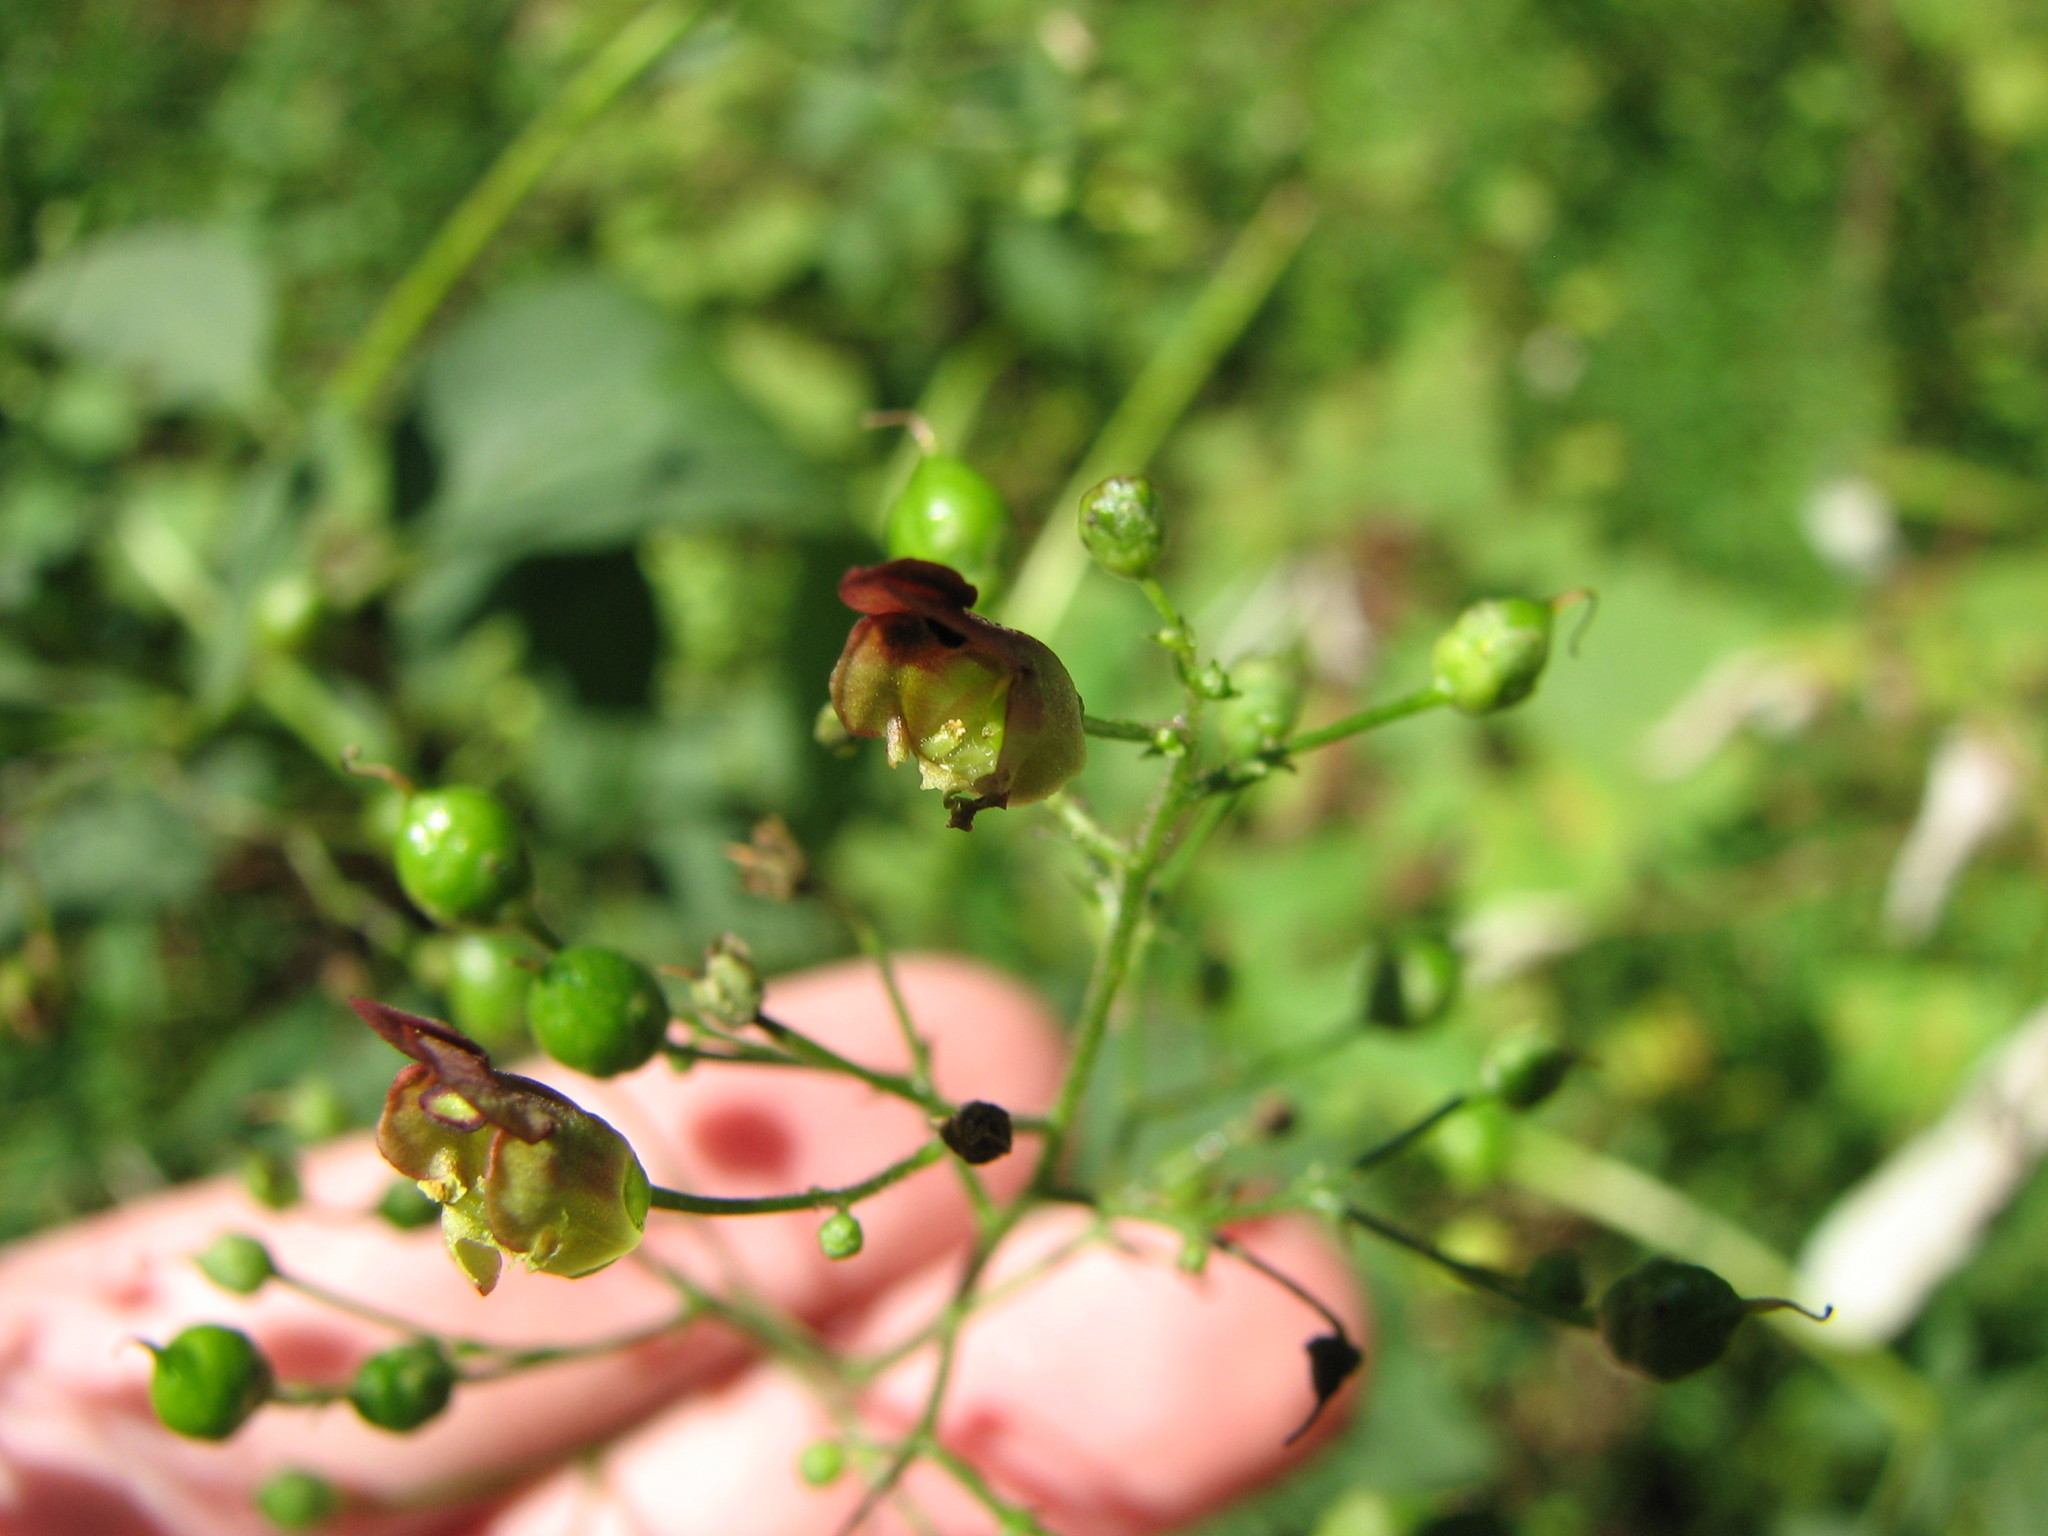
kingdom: Plantae
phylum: Tracheophyta
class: Magnoliopsida
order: Lamiales
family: Scrophulariaceae
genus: Scrophularia
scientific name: Scrophularia marilandica
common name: Eastern figwort
